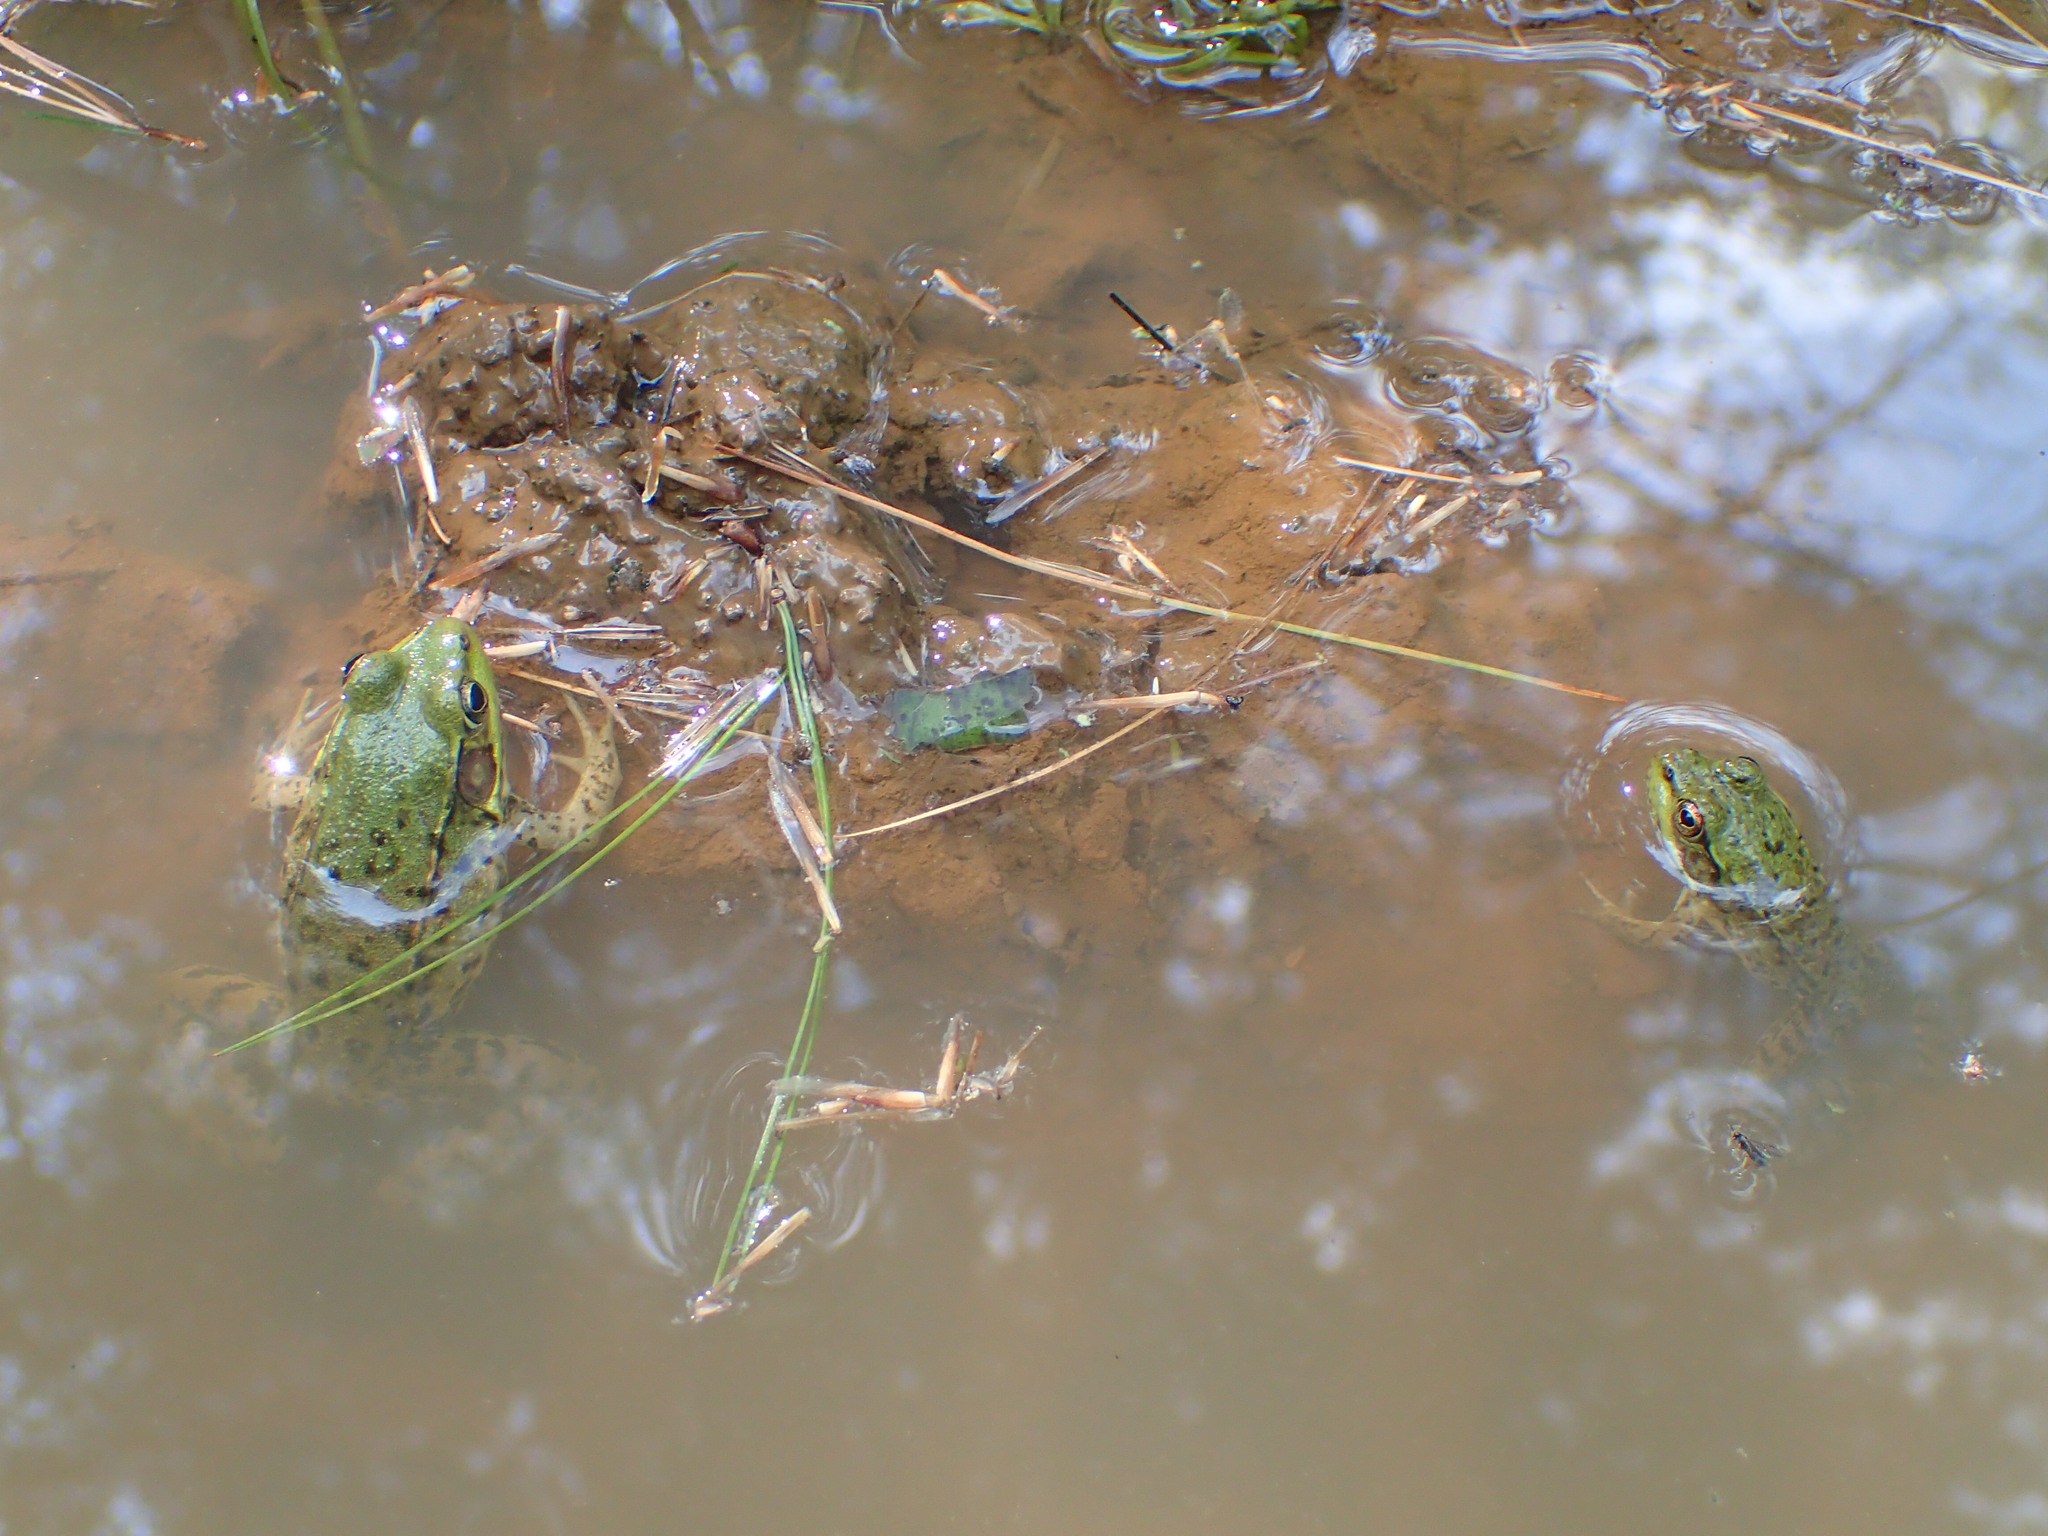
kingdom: Animalia
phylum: Chordata
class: Amphibia
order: Anura
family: Ranidae
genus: Lithobates
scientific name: Lithobates clamitans
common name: Green frog
